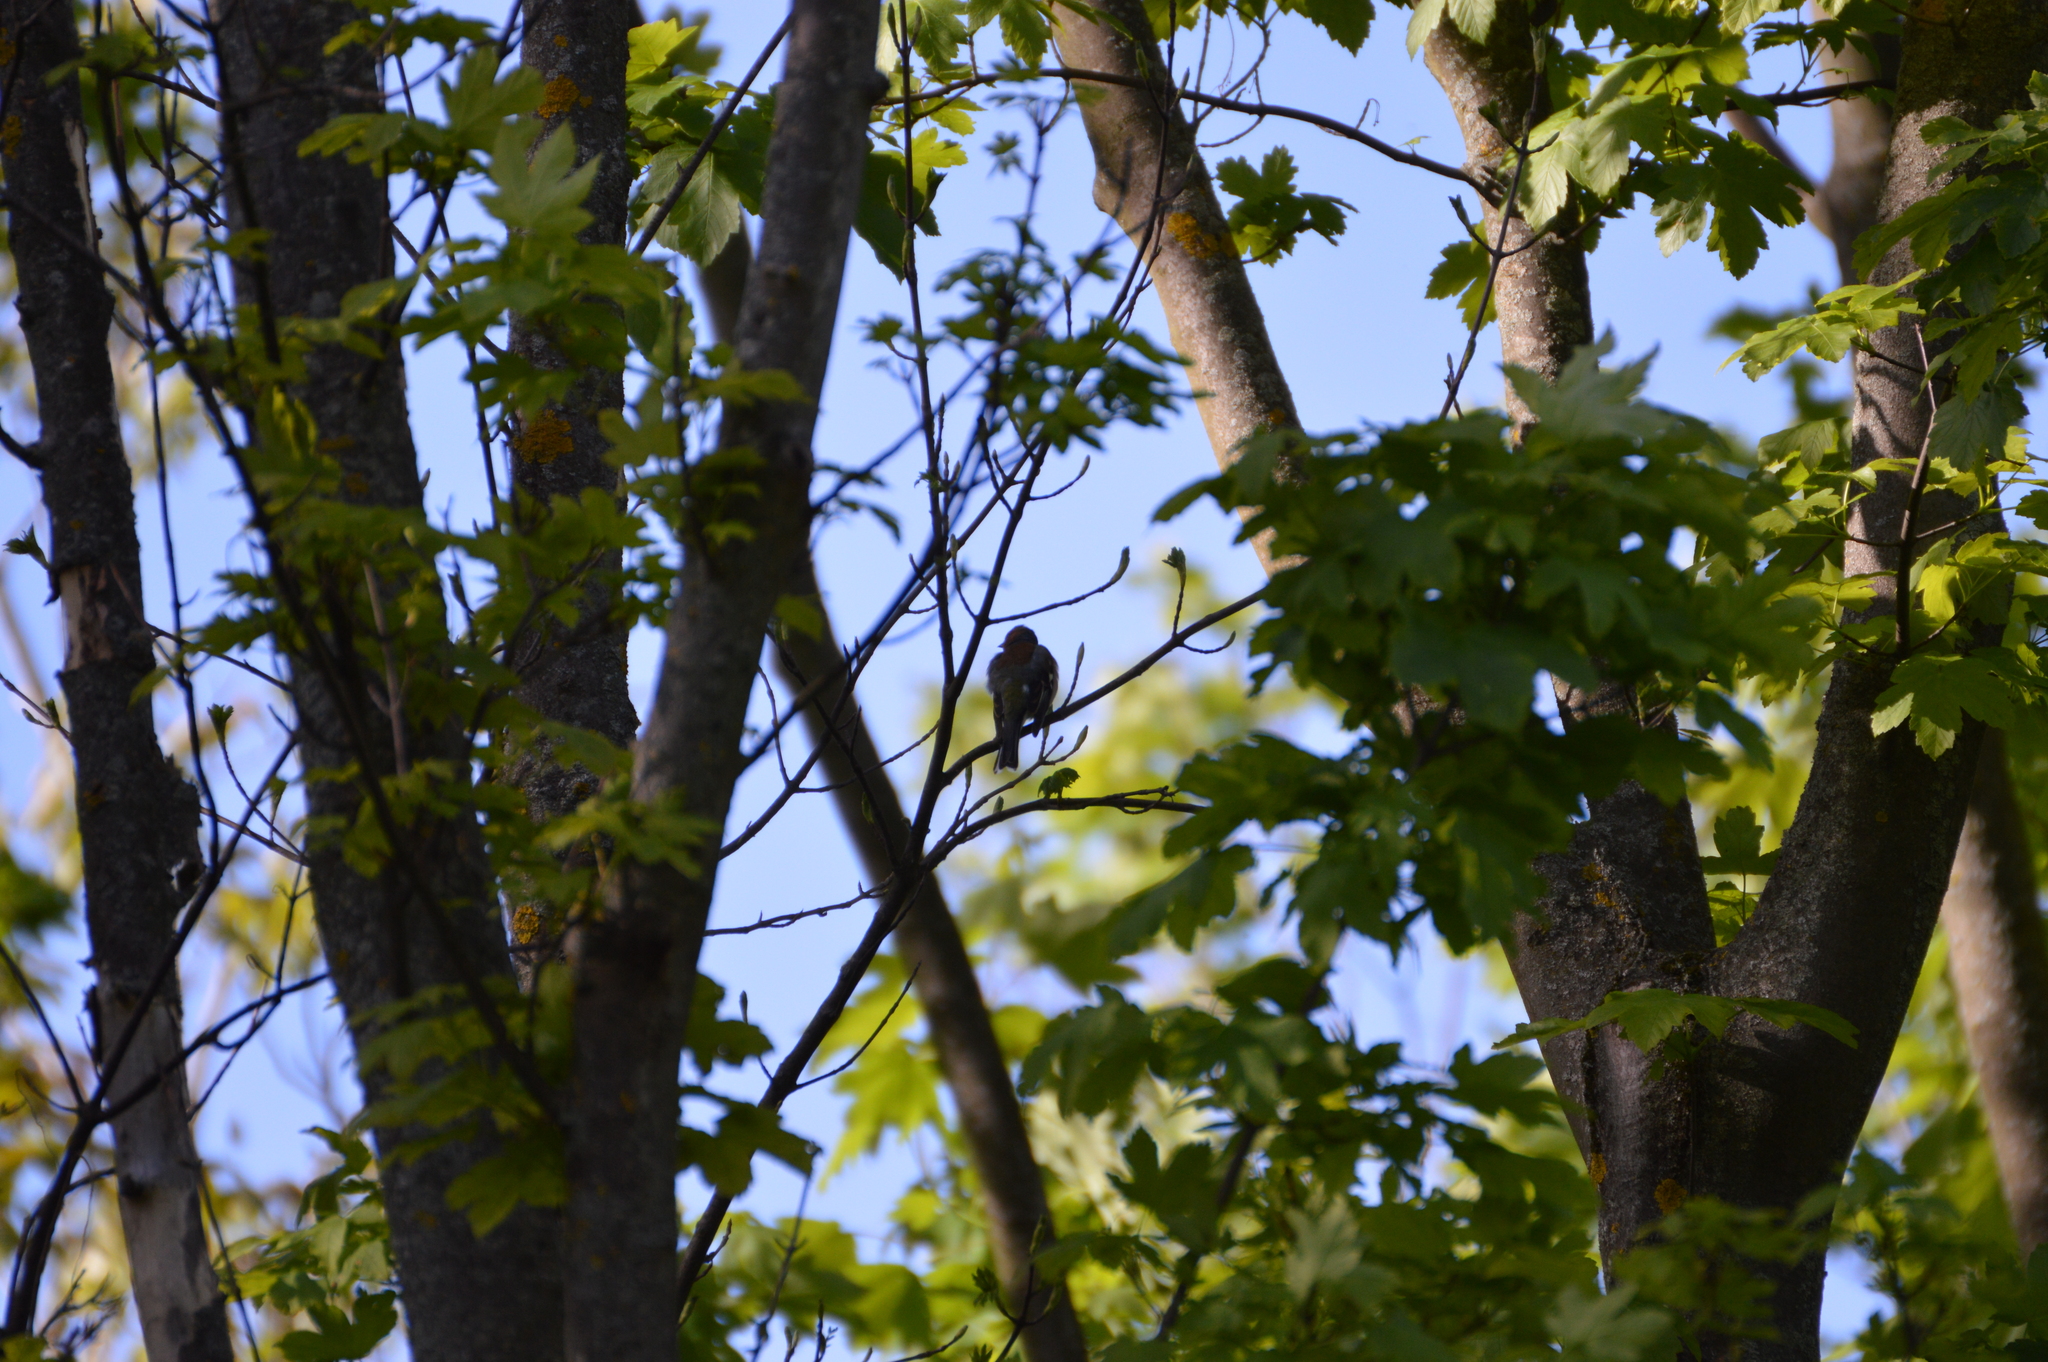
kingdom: Animalia
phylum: Chordata
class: Aves
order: Passeriformes
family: Fringillidae
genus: Fringilla
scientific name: Fringilla coelebs
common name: Common chaffinch
